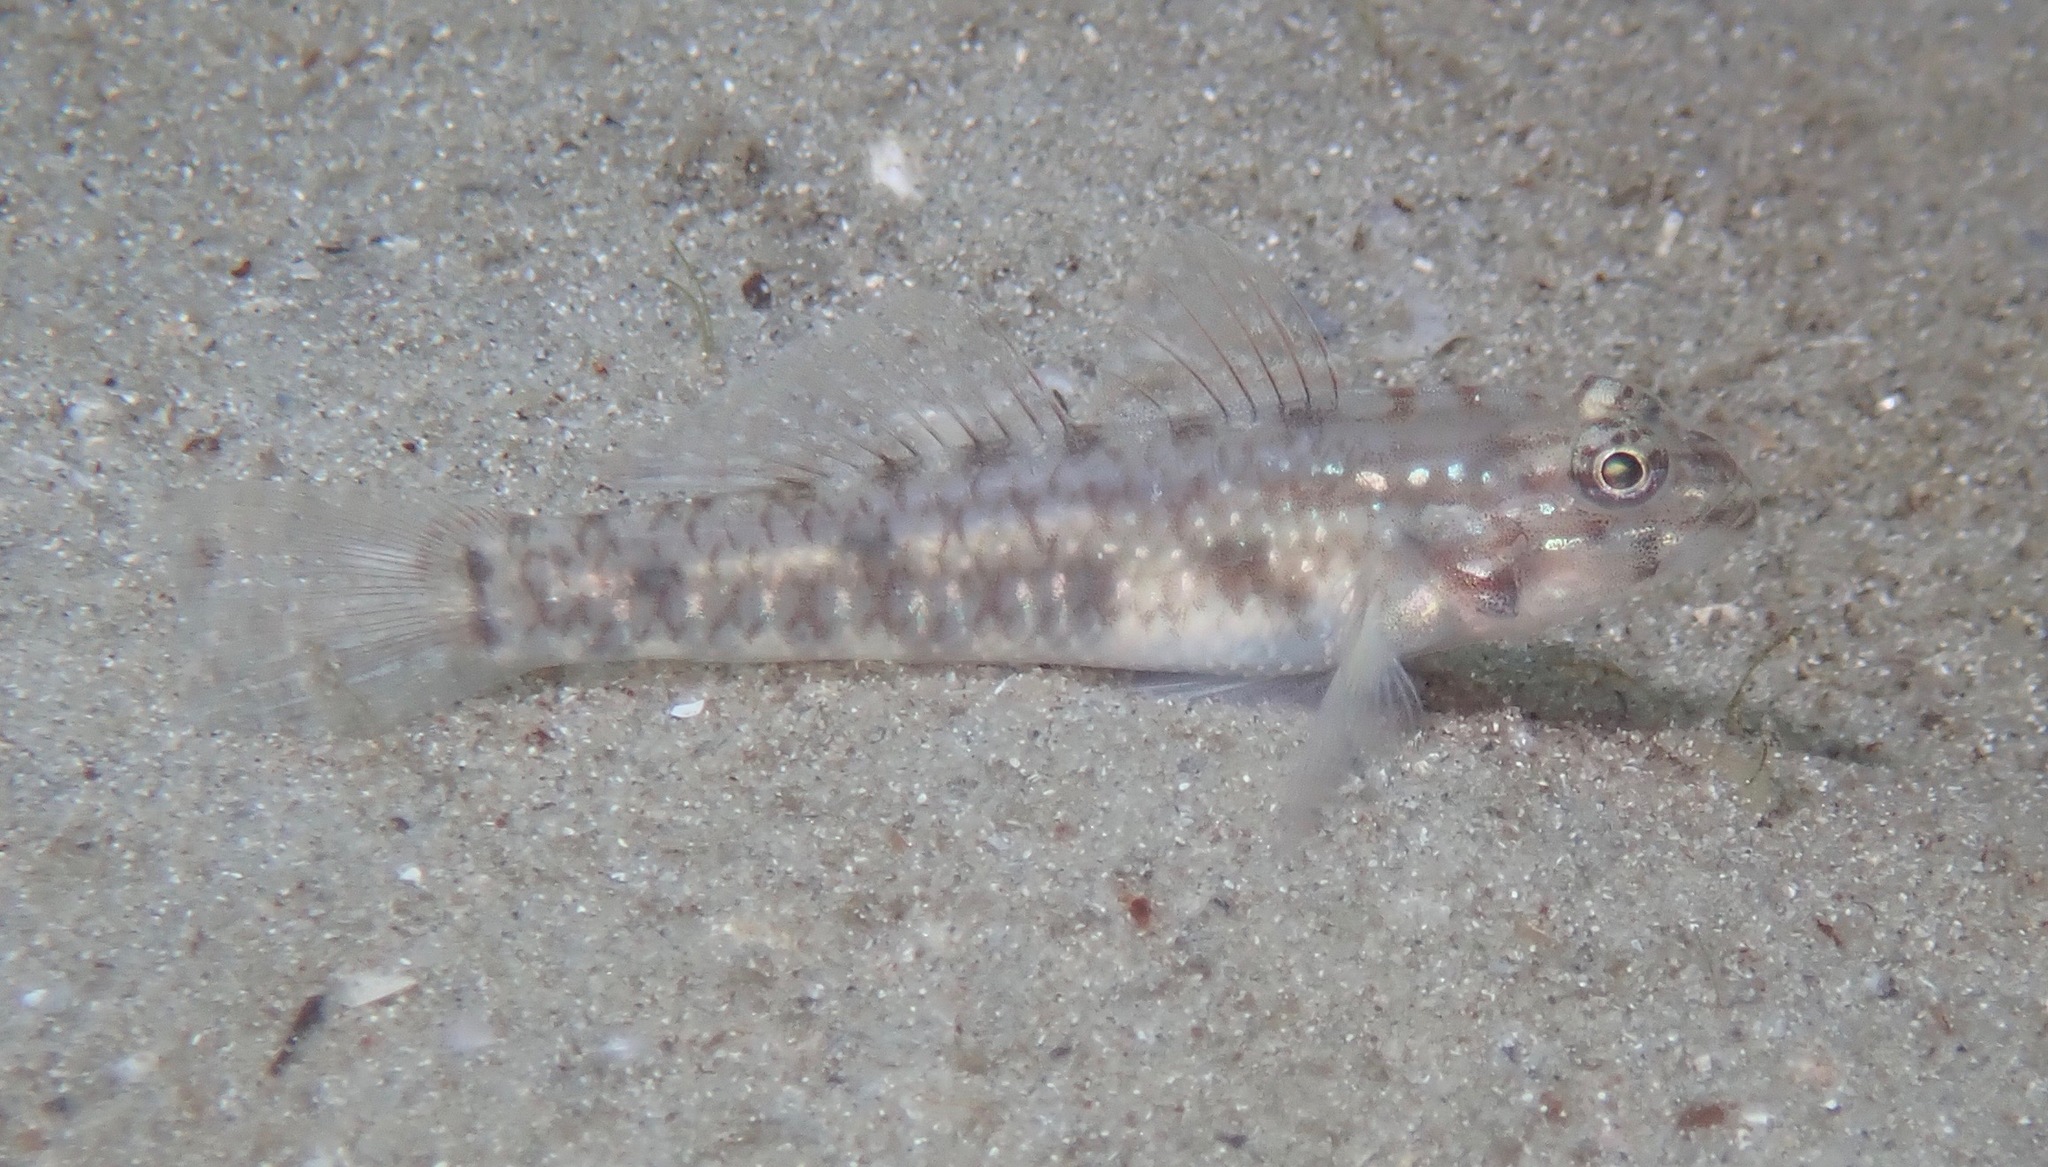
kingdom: Animalia
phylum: Chordata
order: Perciformes
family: Gobiidae
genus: Coryphopterus
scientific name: Coryphopterus glaucofraenum
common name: Bridled goby
